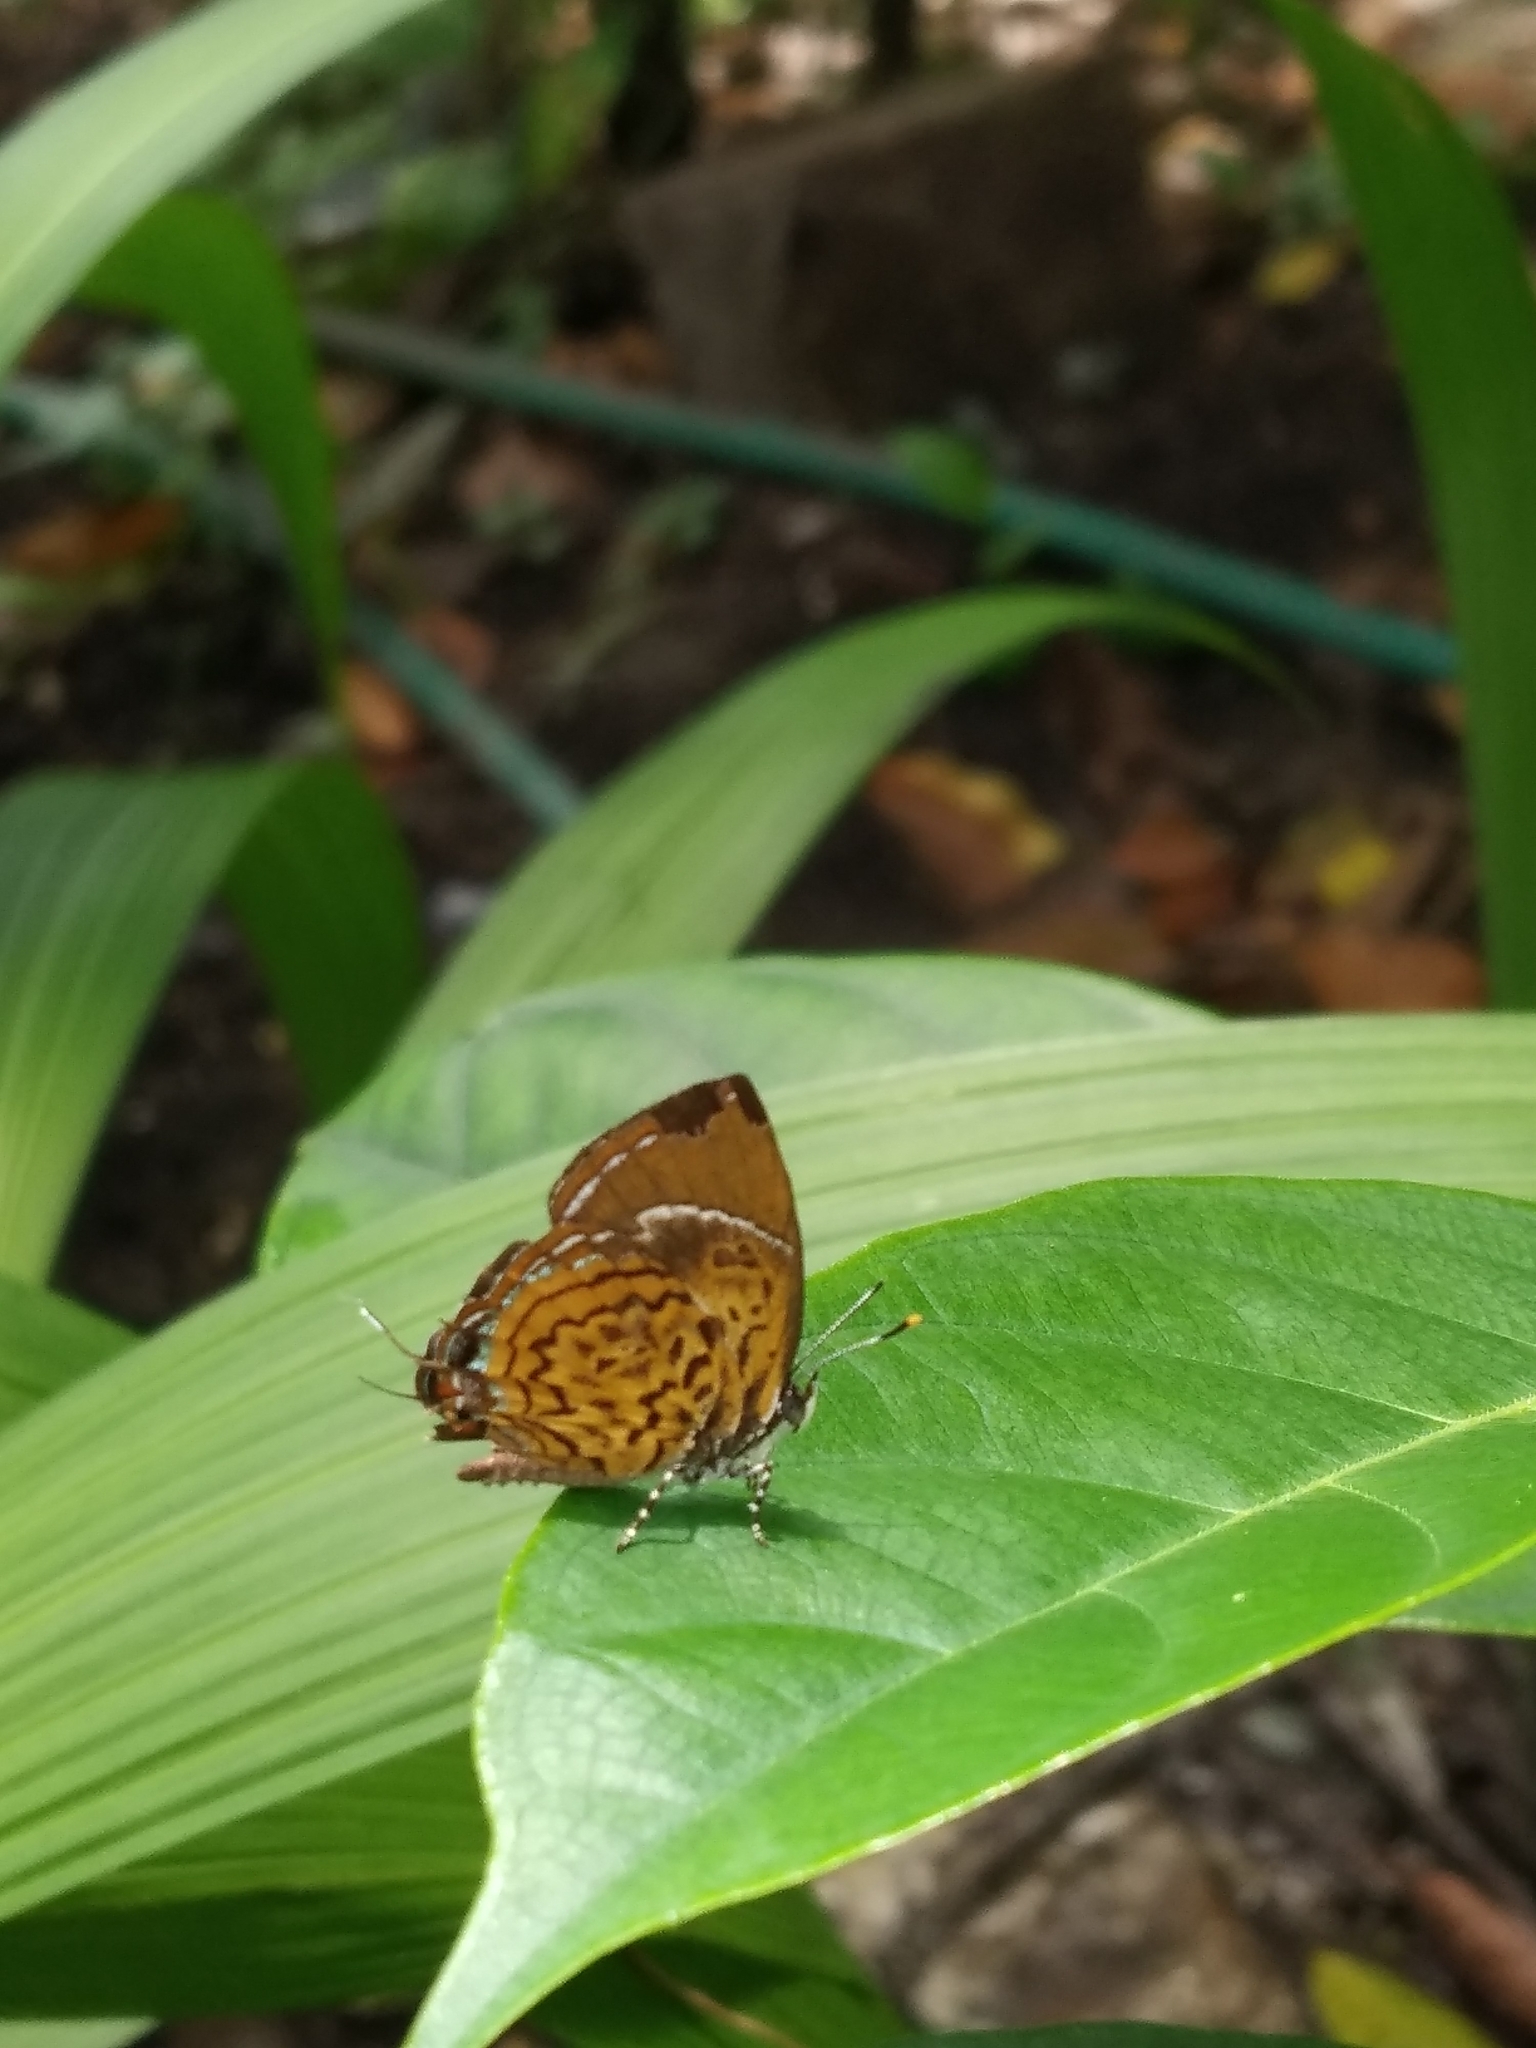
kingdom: Animalia
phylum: Arthropoda
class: Insecta
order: Lepidoptera
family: Lycaenidae
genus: Rathinda
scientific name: Rathinda amor
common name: Monkey puzzle
